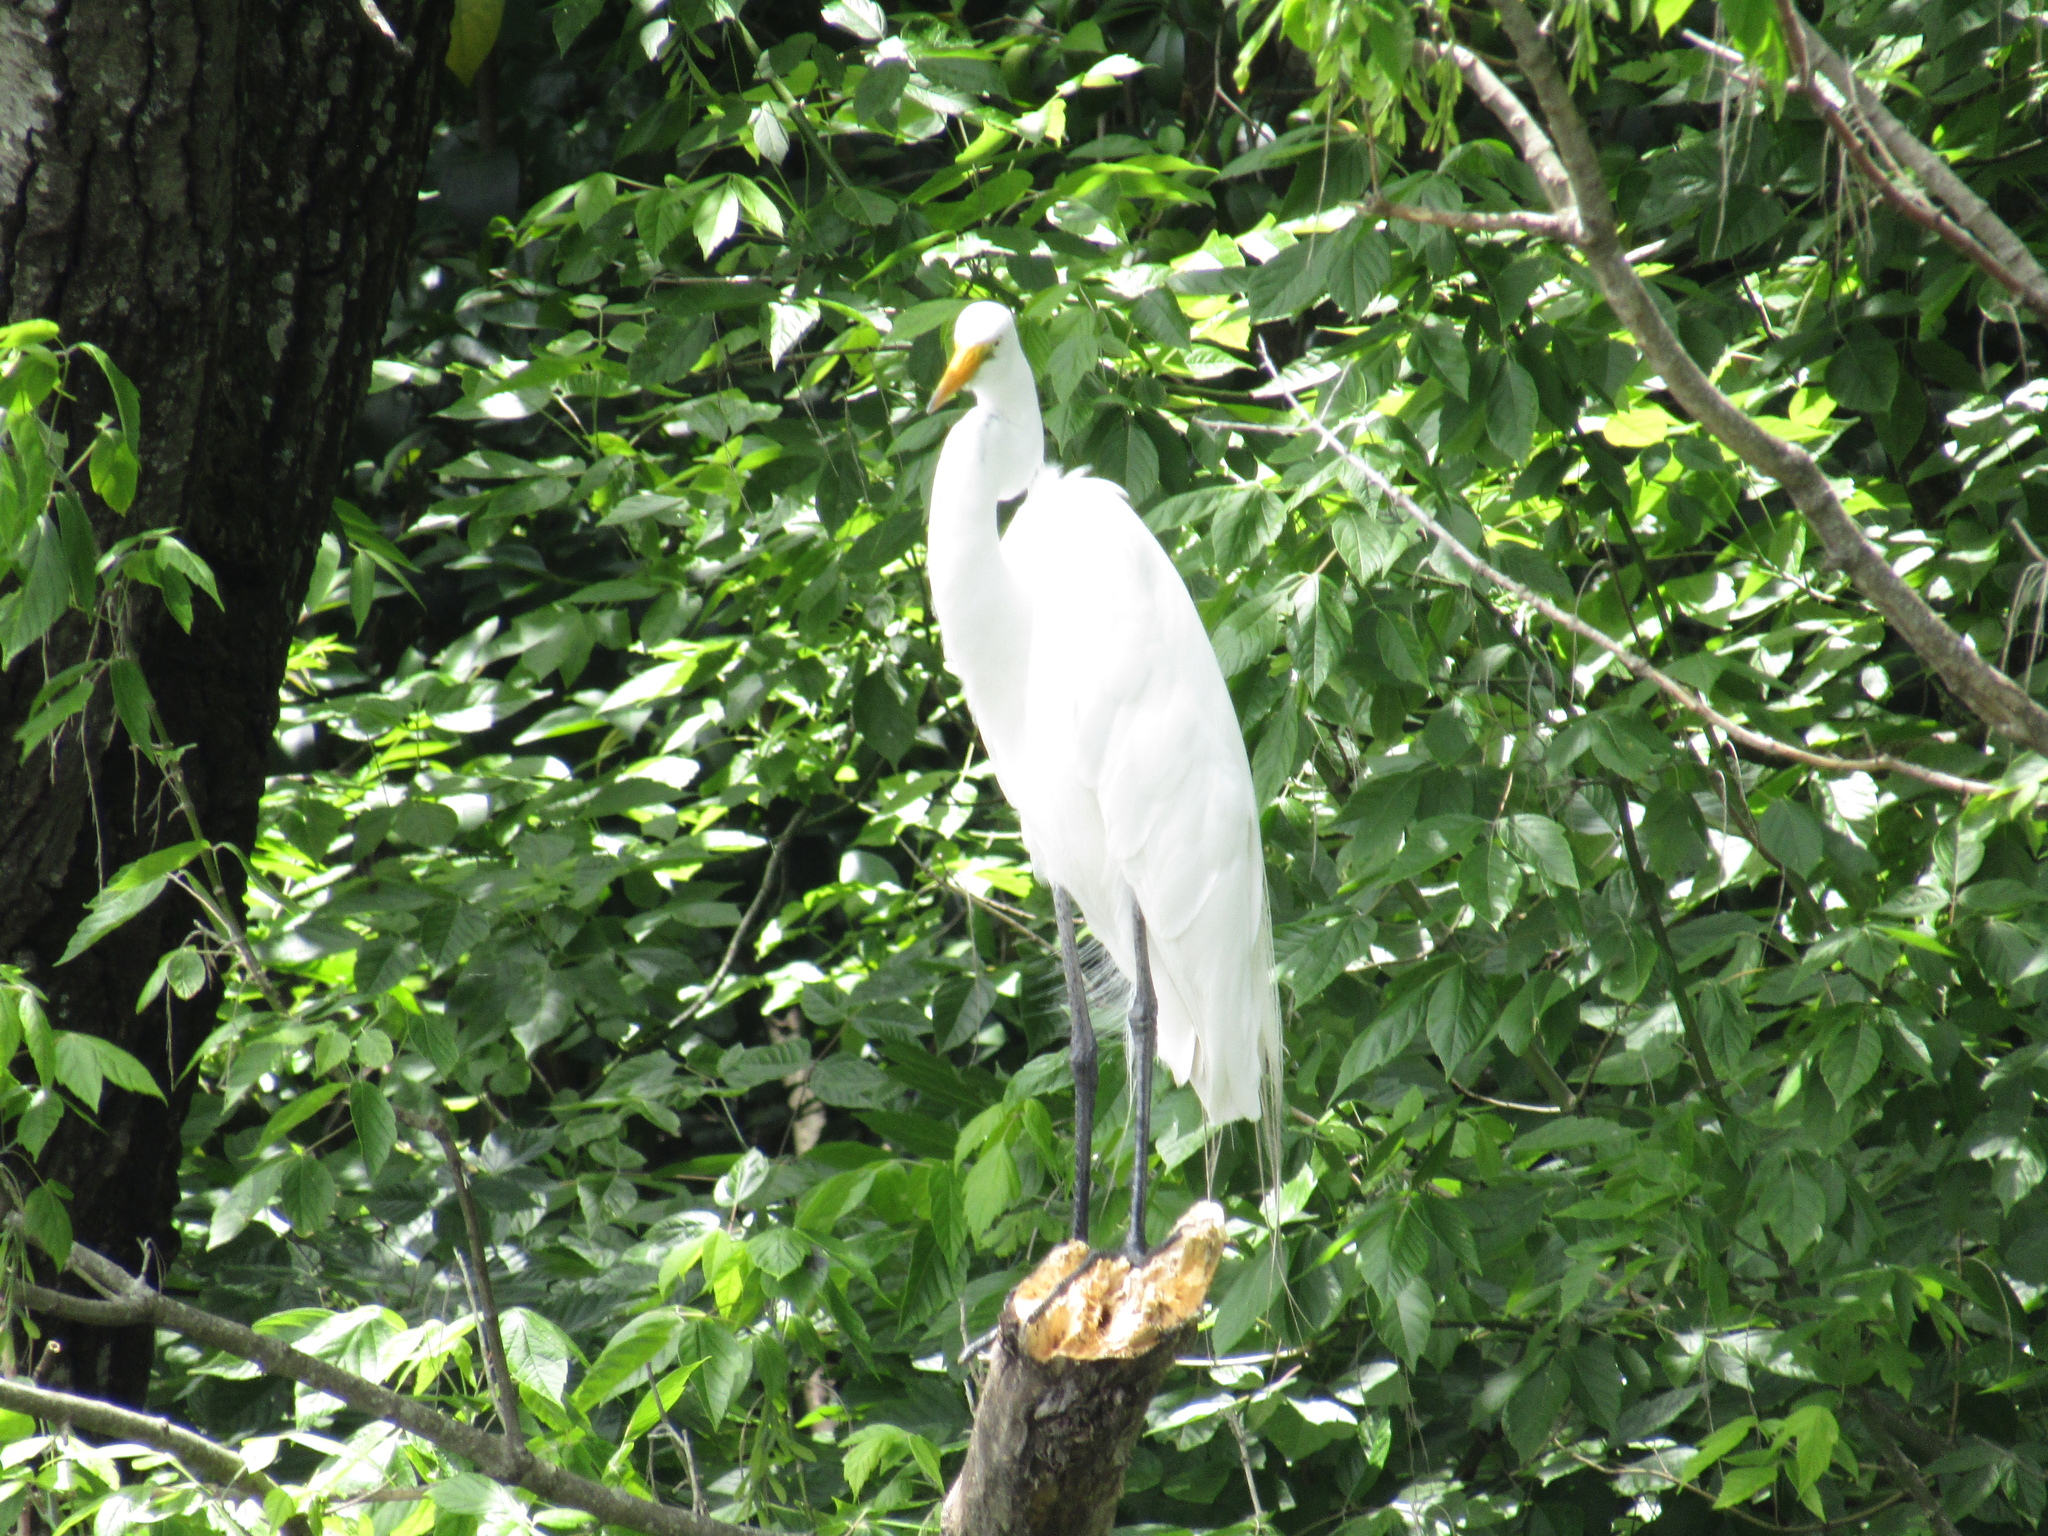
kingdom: Animalia
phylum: Chordata
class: Aves
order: Pelecaniformes
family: Ardeidae
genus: Ardea
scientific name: Ardea alba
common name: Great egret
